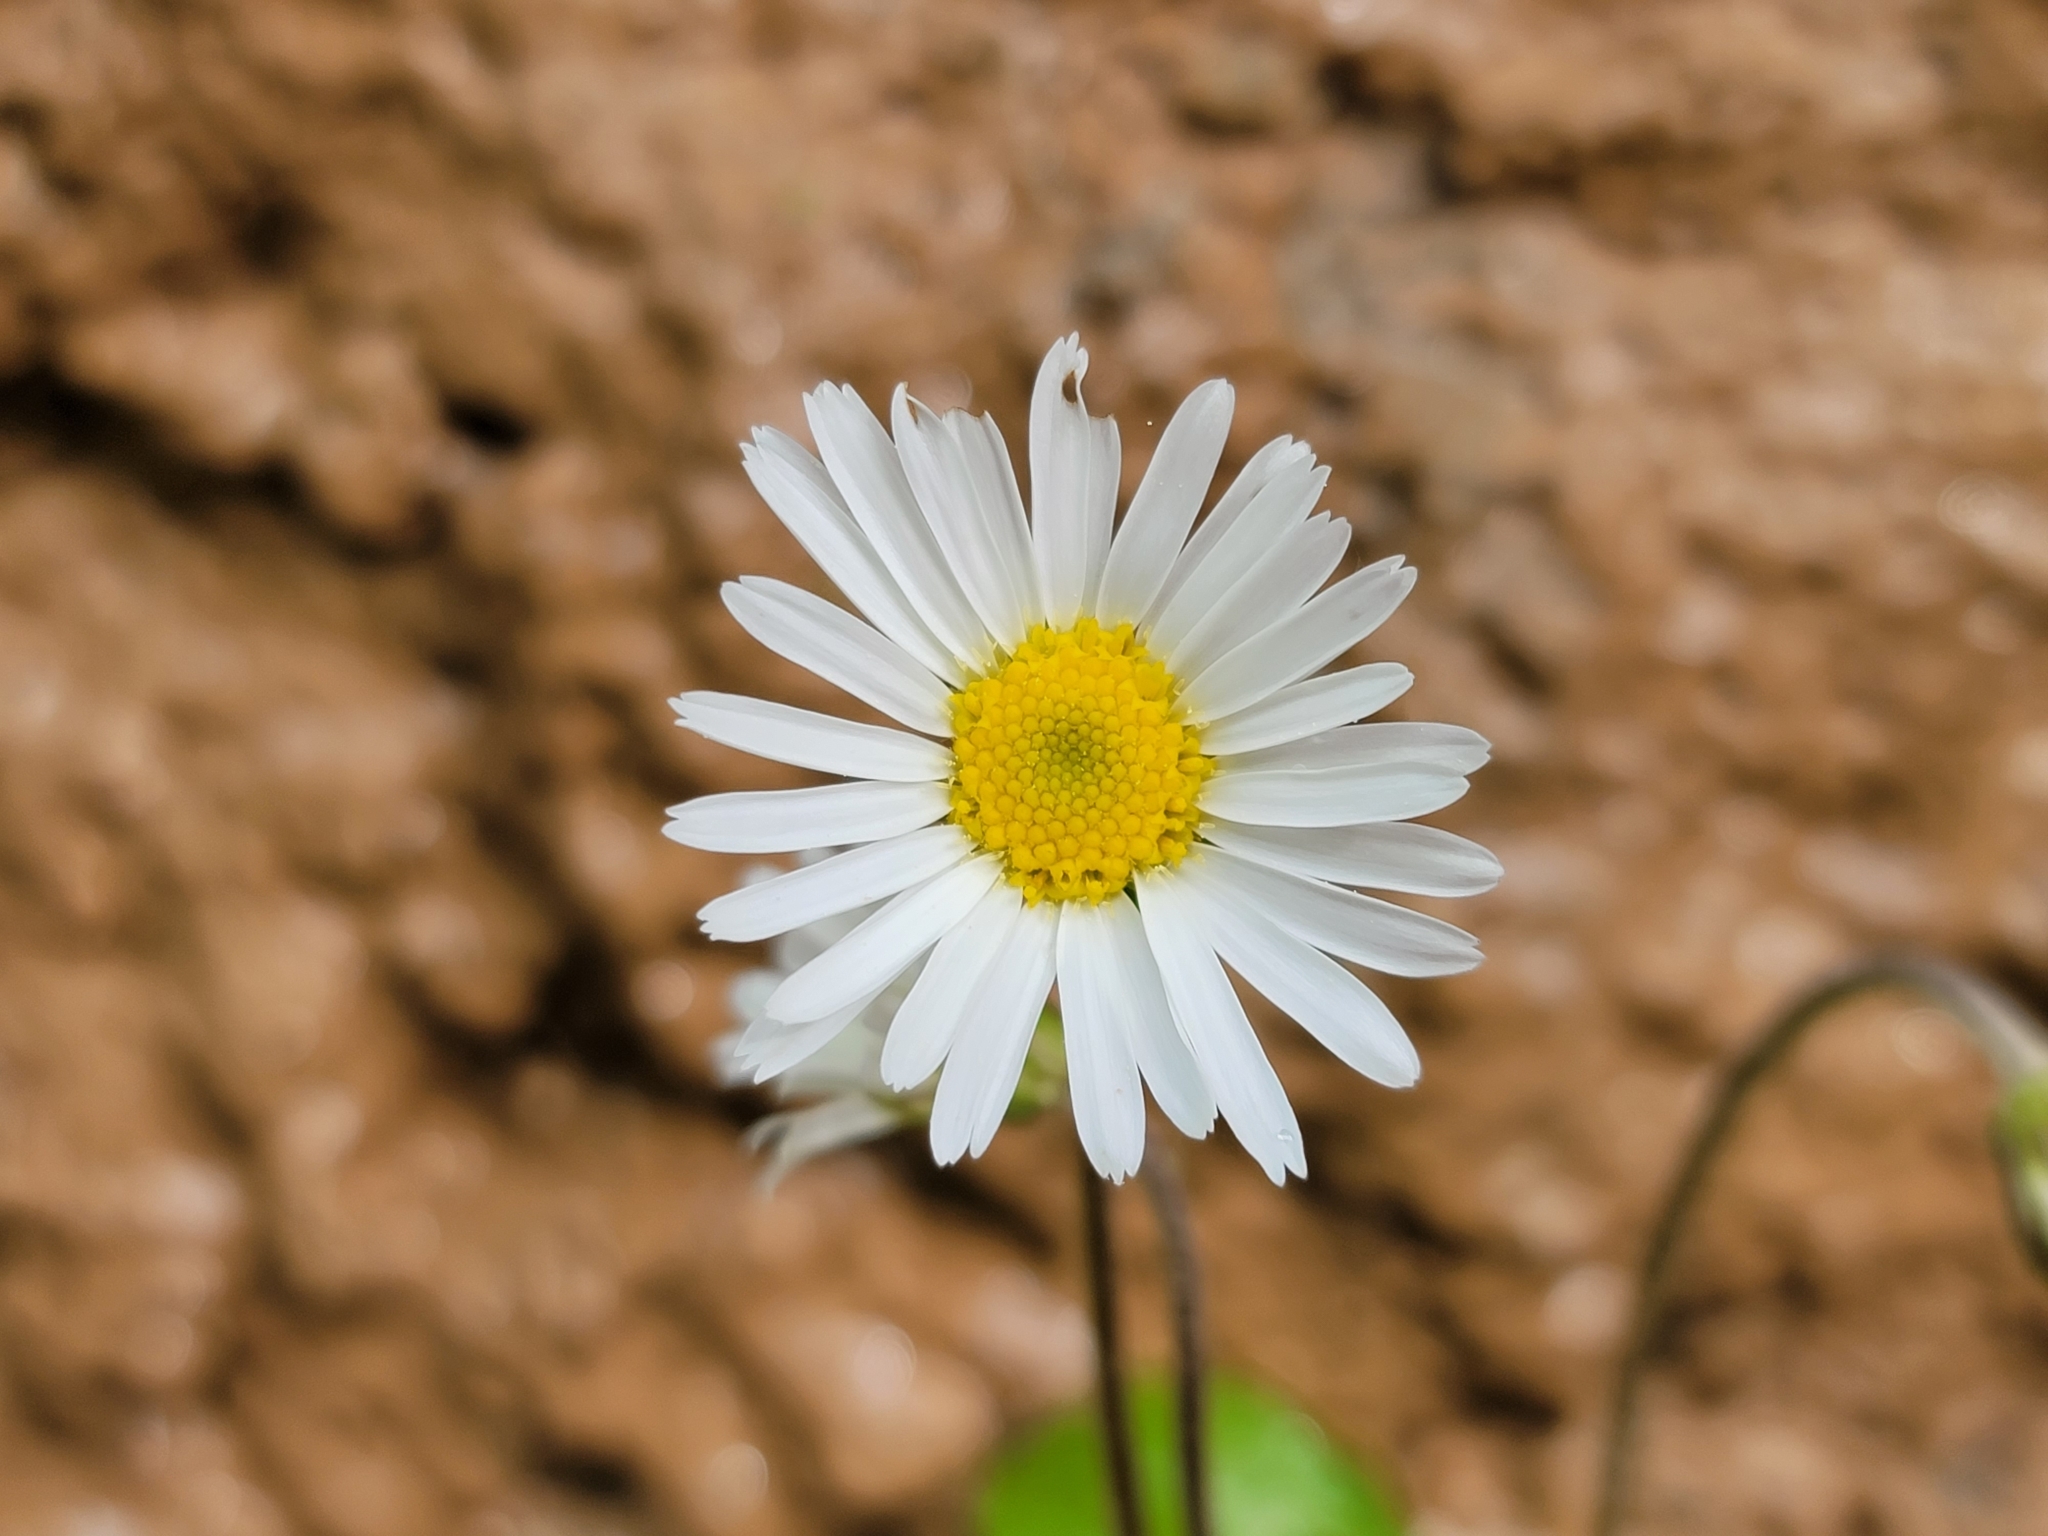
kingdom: Plantae
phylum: Tracheophyta
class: Magnoliopsida
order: Asterales
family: Asteraceae
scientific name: Asteraceae
